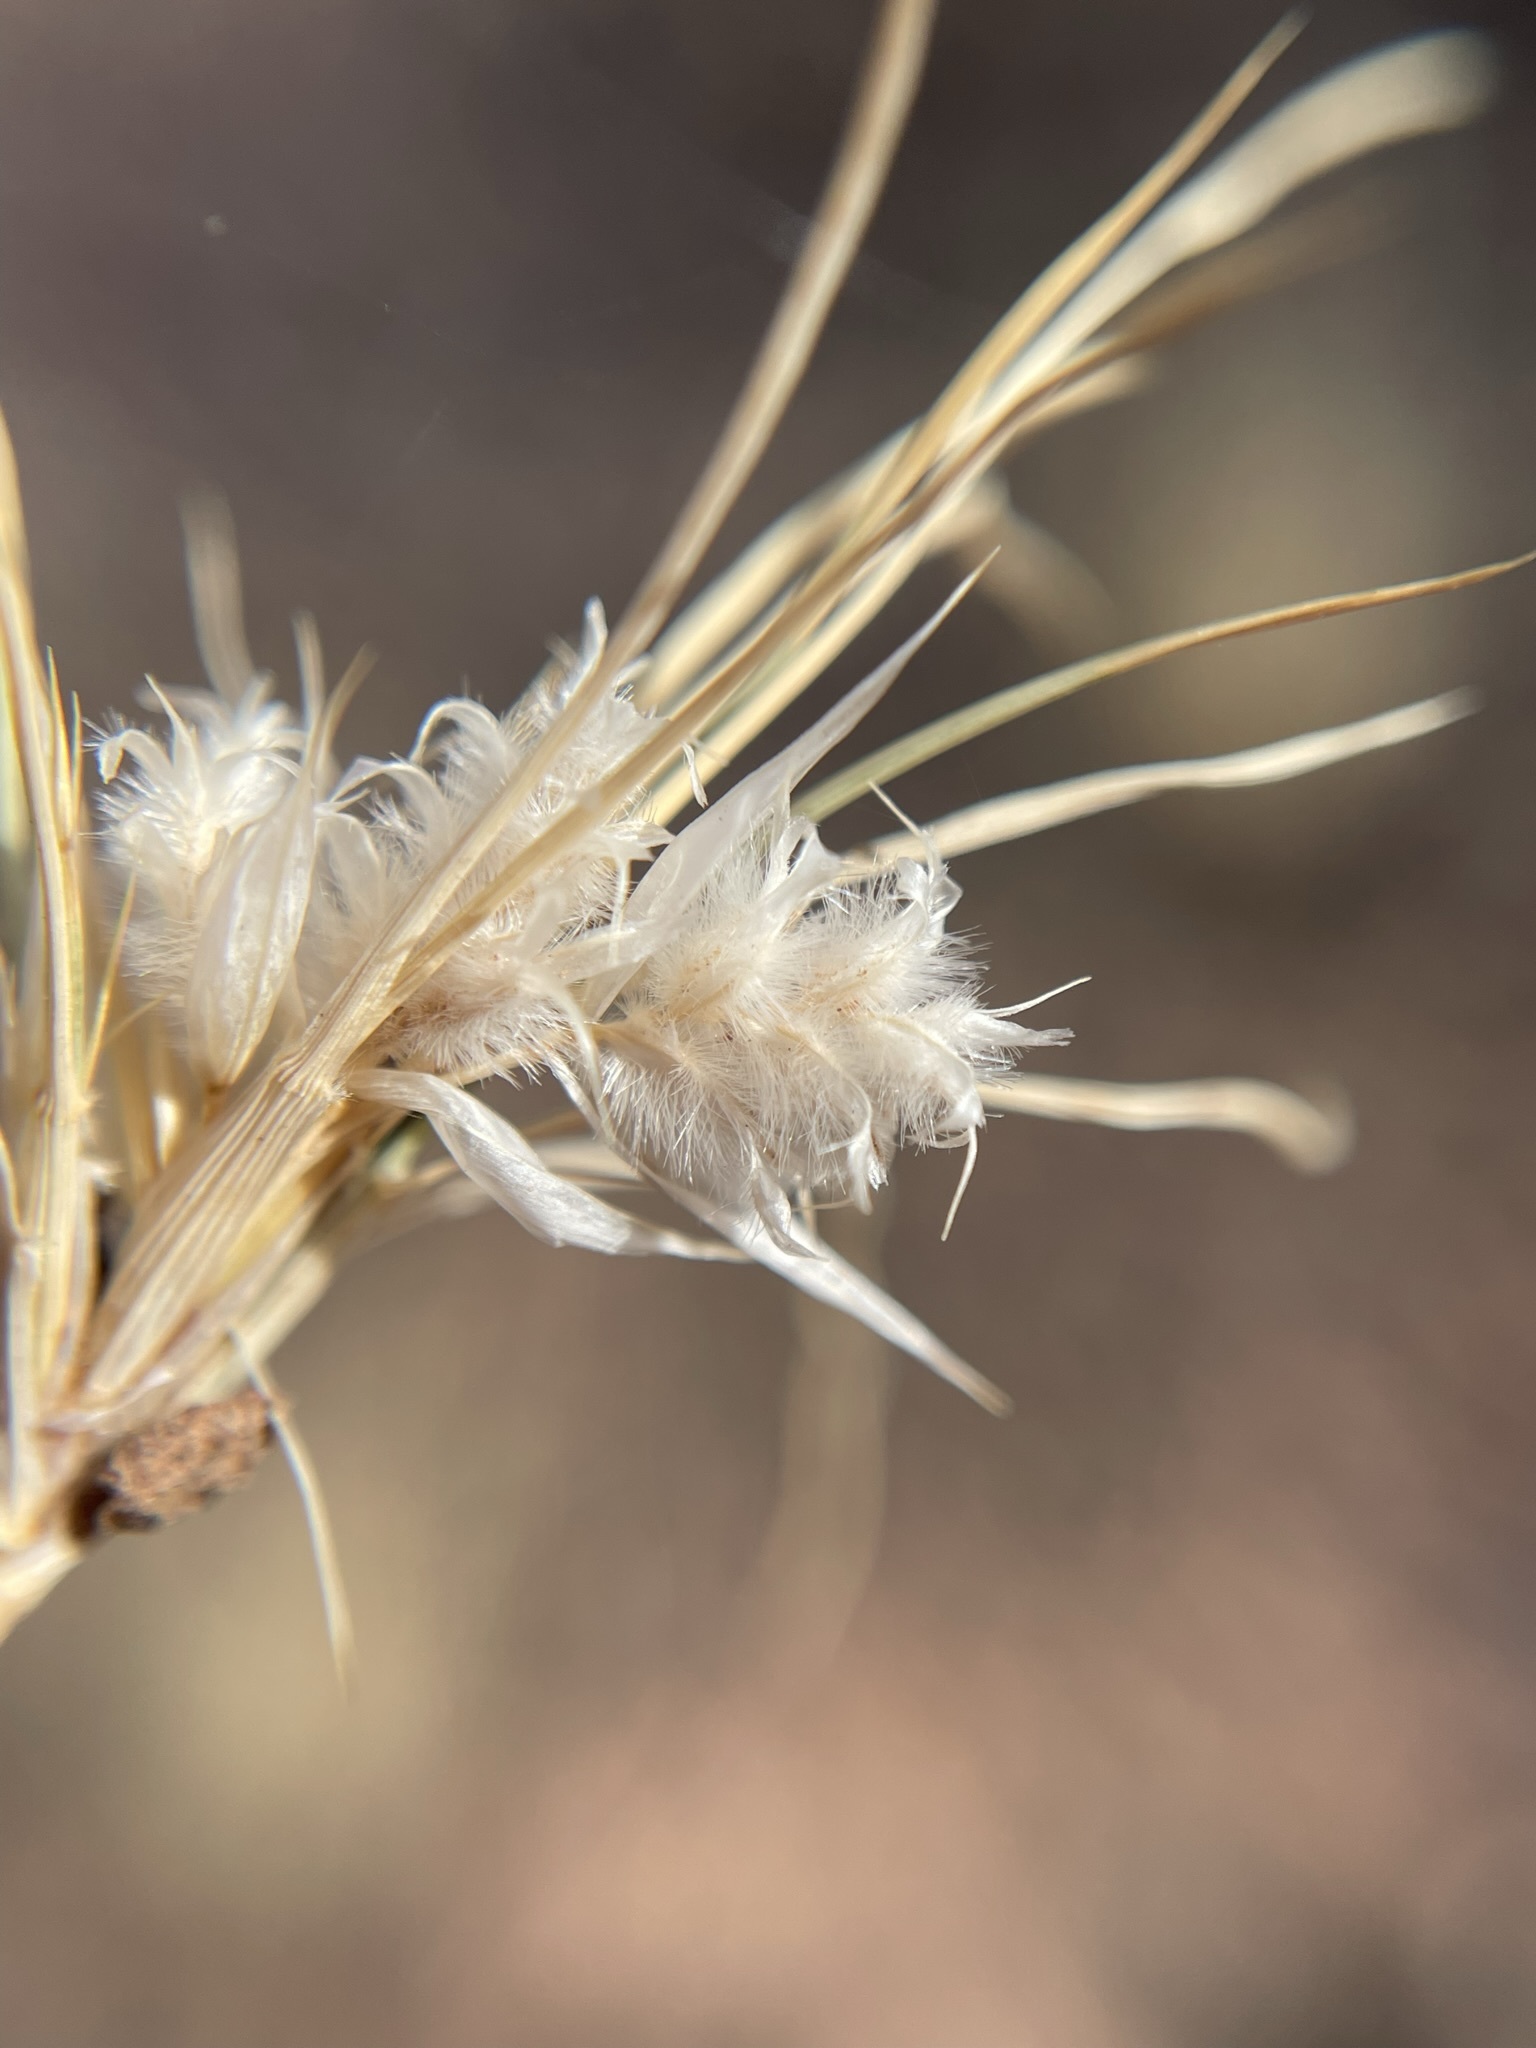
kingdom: Plantae
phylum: Tracheophyta
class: Liliopsida
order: Poales
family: Poaceae
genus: Dasyochloa
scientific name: Dasyochloa pulchella
